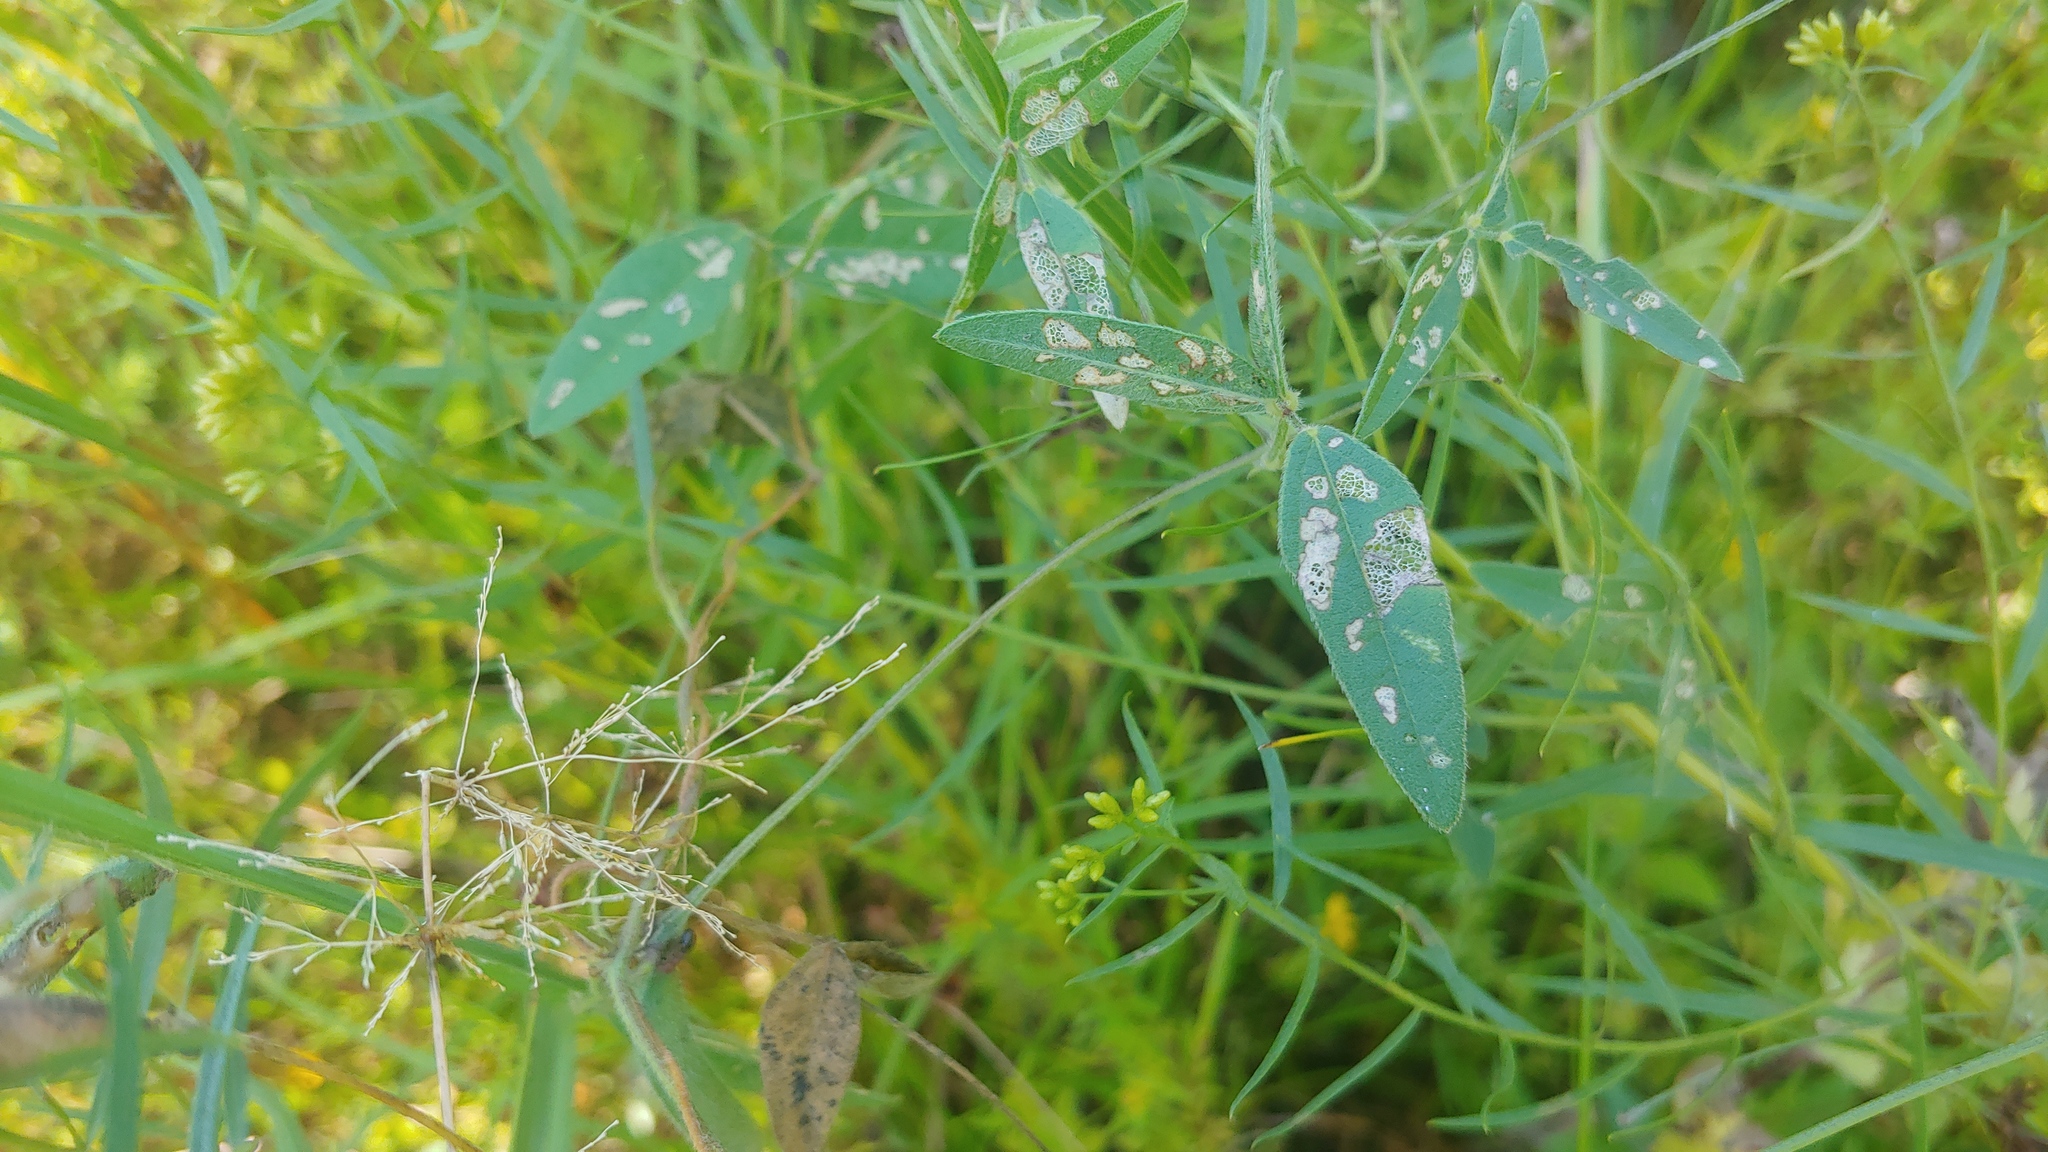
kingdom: Plantae
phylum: Tracheophyta
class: Magnoliopsida
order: Fabales
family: Fabaceae
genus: Strophostyles
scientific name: Strophostyles leiosperma
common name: Smooth-seed wild bean
